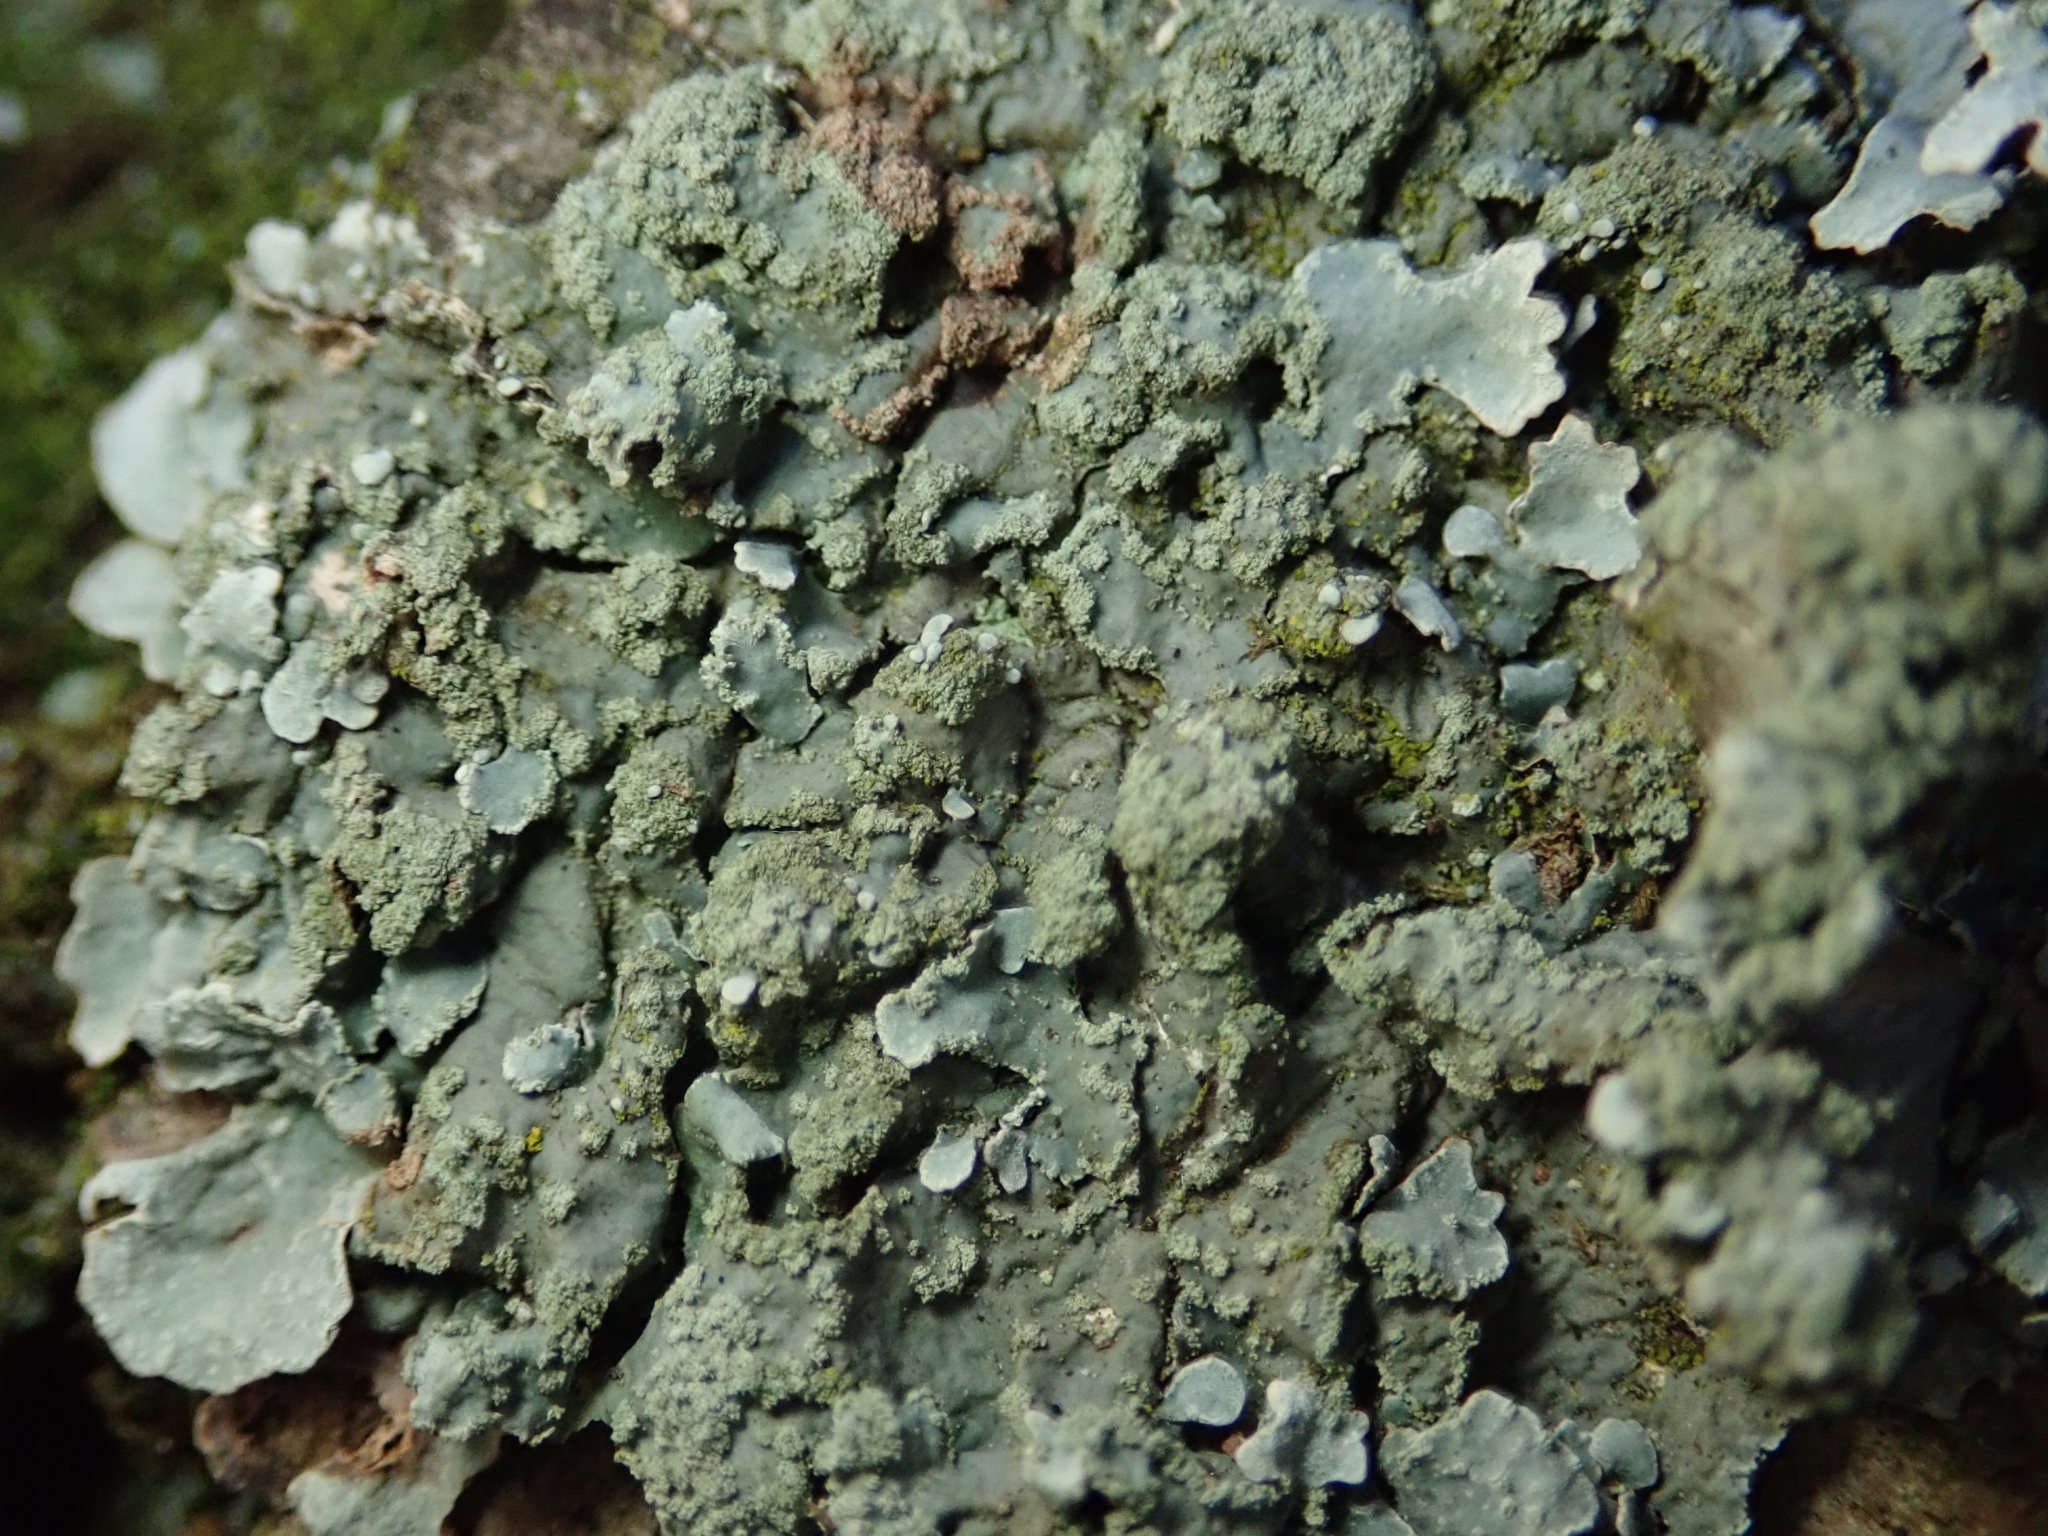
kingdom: Fungi
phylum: Ascomycota
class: Lecanoromycetes
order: Lecanorales
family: Parmeliaceae
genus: Parmelia
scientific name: Parmelia sulcata
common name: Netted shield lichen
